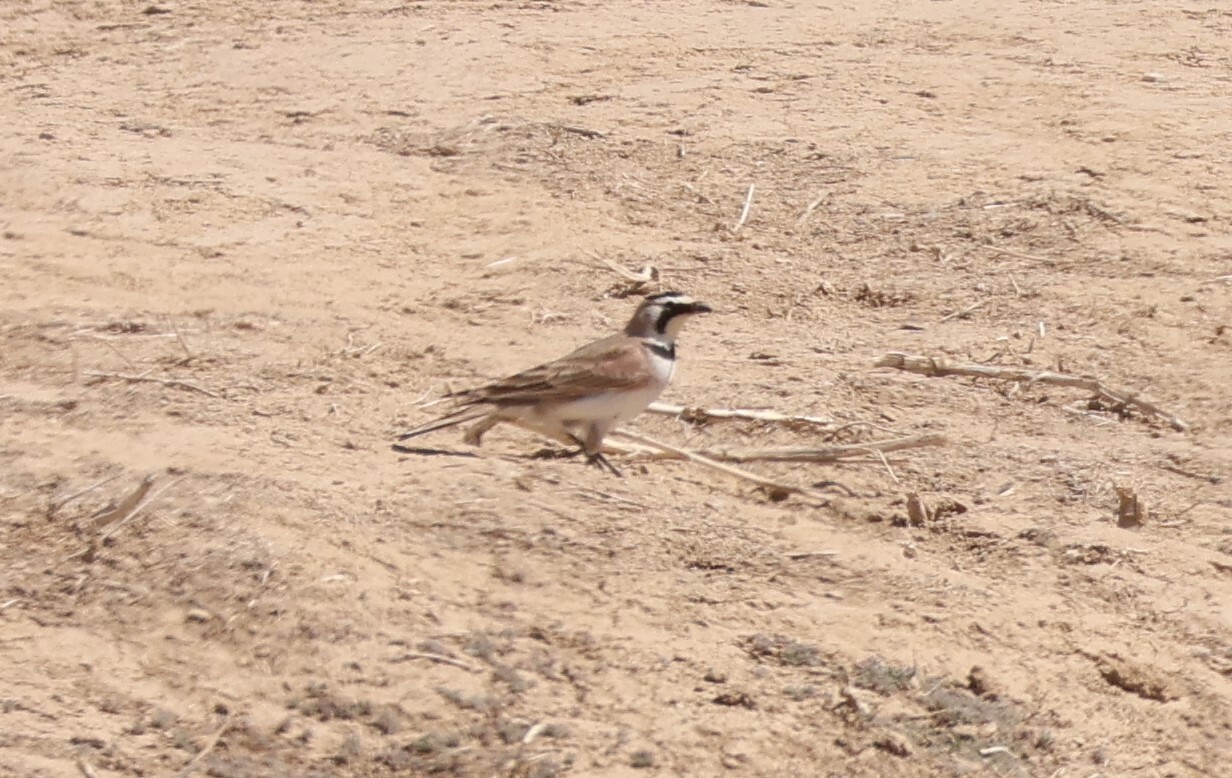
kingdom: Animalia
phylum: Chordata
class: Aves
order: Passeriformes
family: Alaudidae
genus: Eremophila
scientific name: Eremophila alpestris
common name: Horned lark
